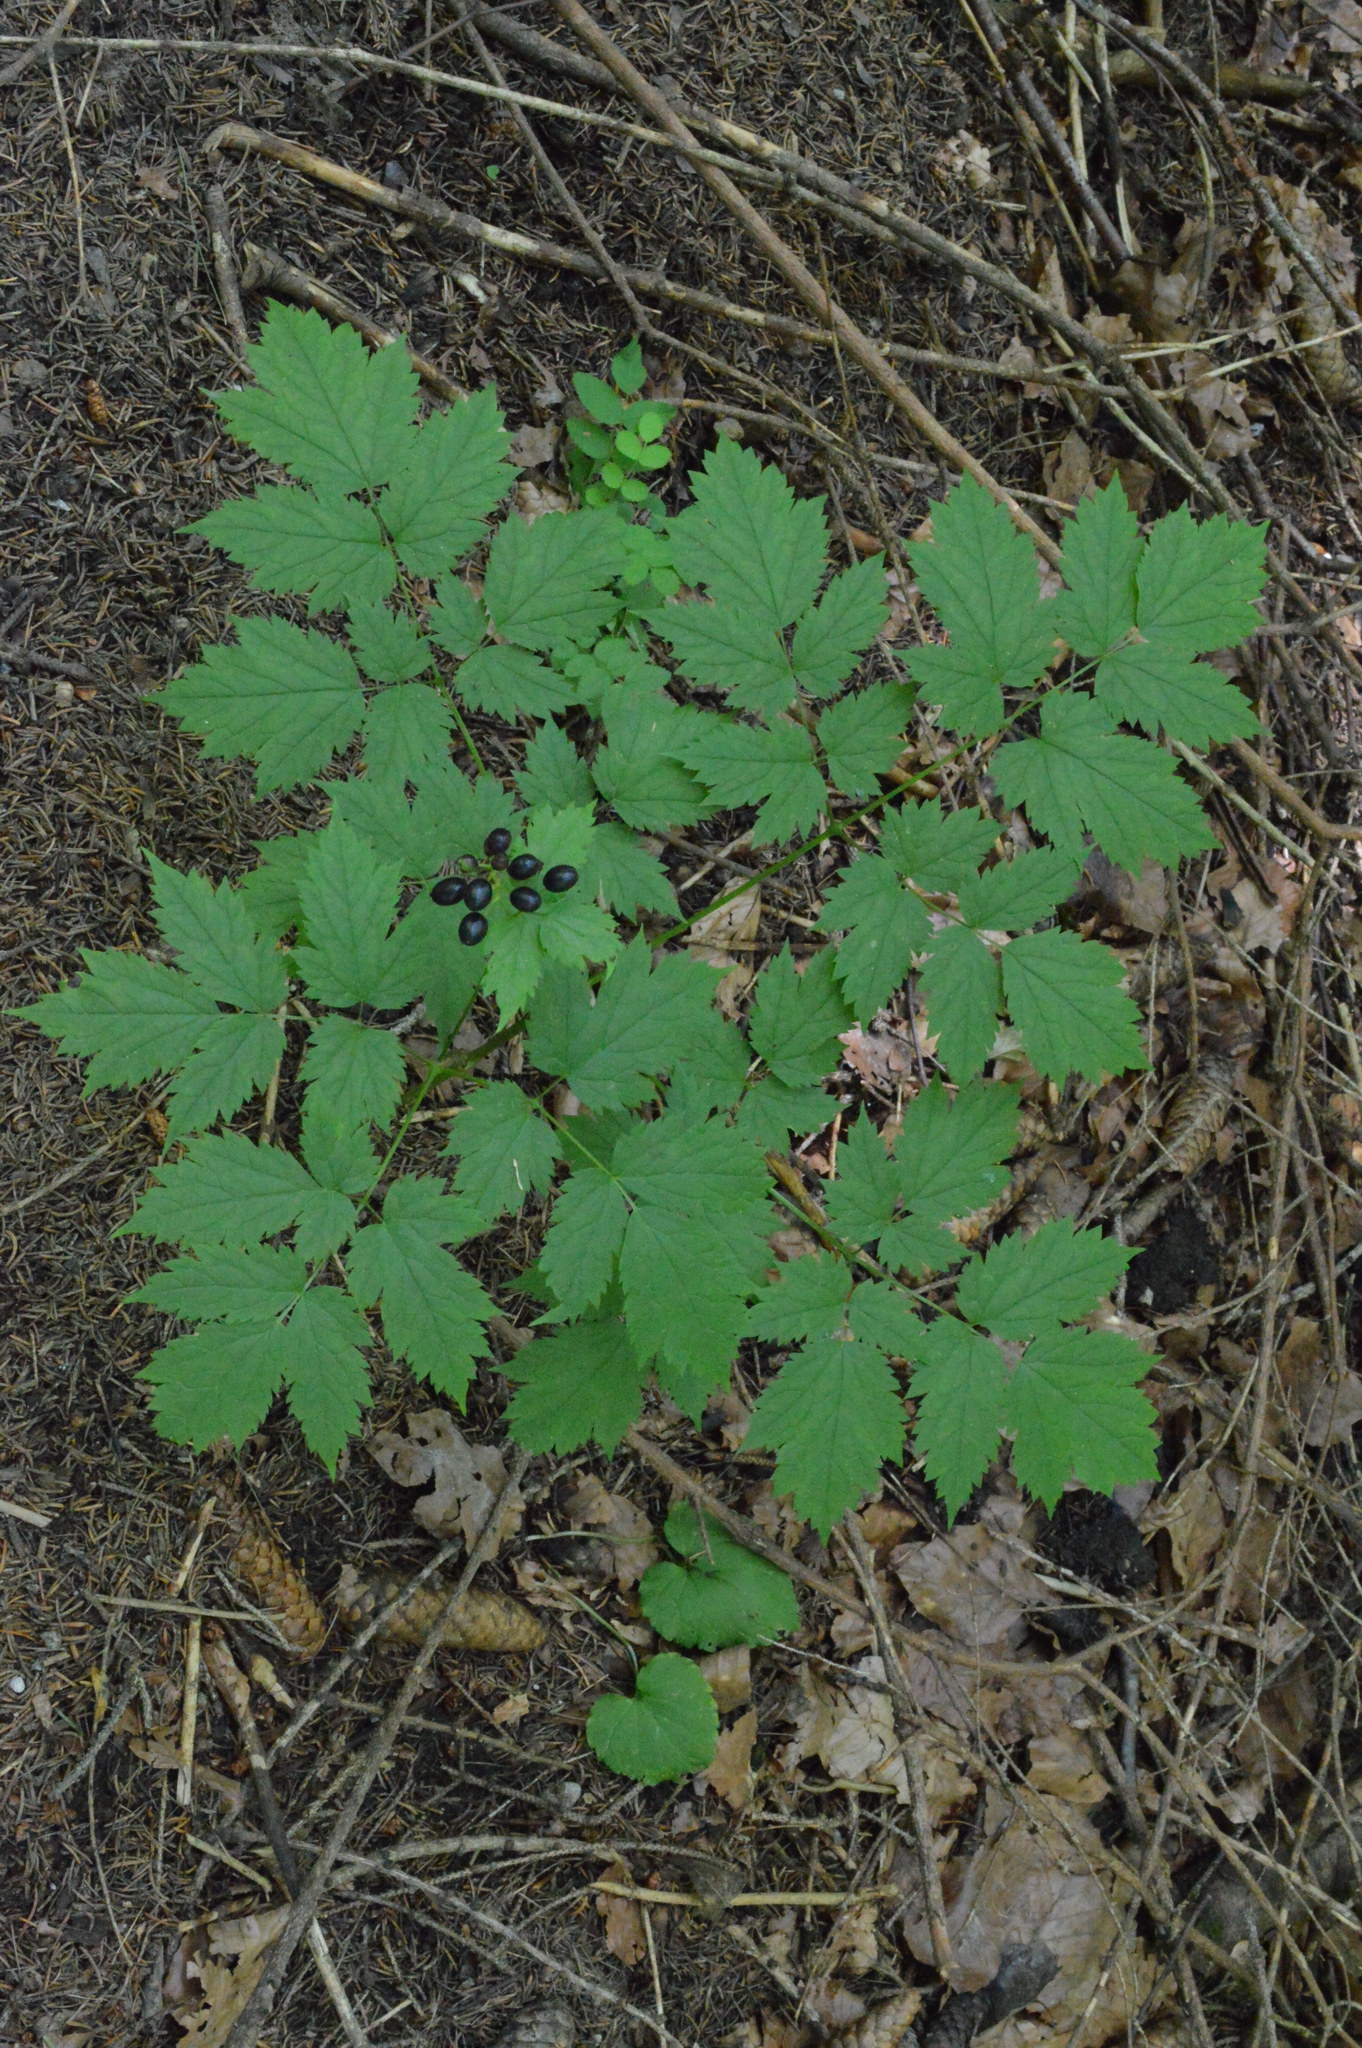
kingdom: Plantae
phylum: Tracheophyta
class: Magnoliopsida
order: Ranunculales
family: Ranunculaceae
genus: Actaea
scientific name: Actaea spicata
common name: Baneberry
